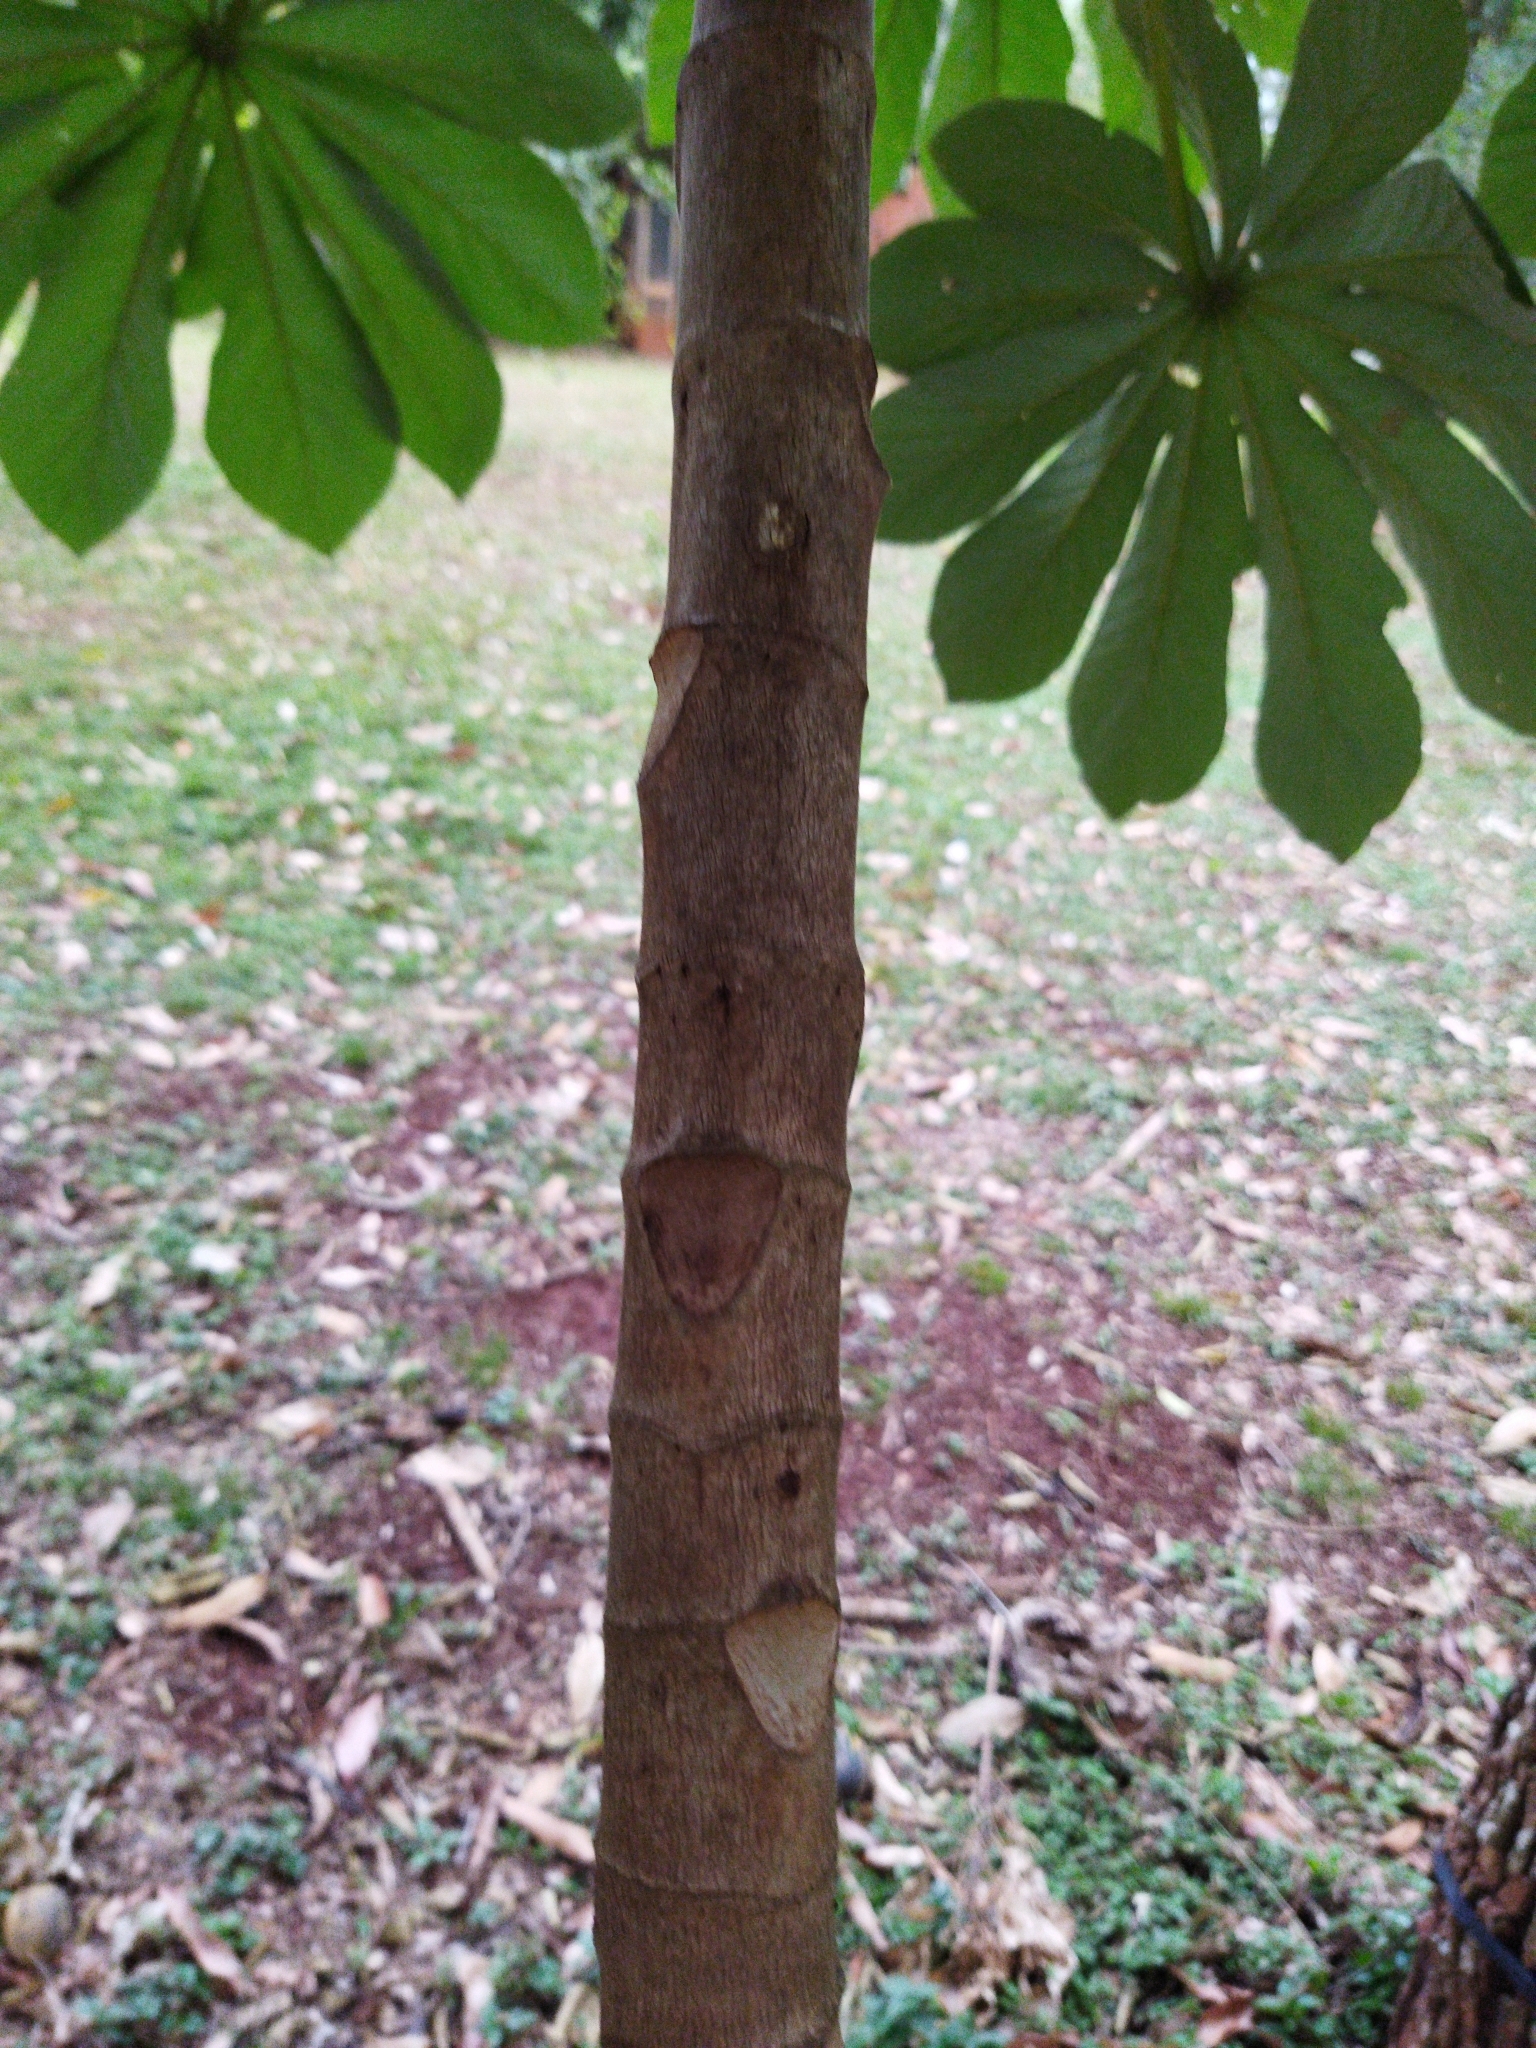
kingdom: Plantae
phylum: Tracheophyta
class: Magnoliopsida
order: Rosales
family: Urticaceae
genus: Cecropia
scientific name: Cecropia pachystachya
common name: Ambay pumpwood
